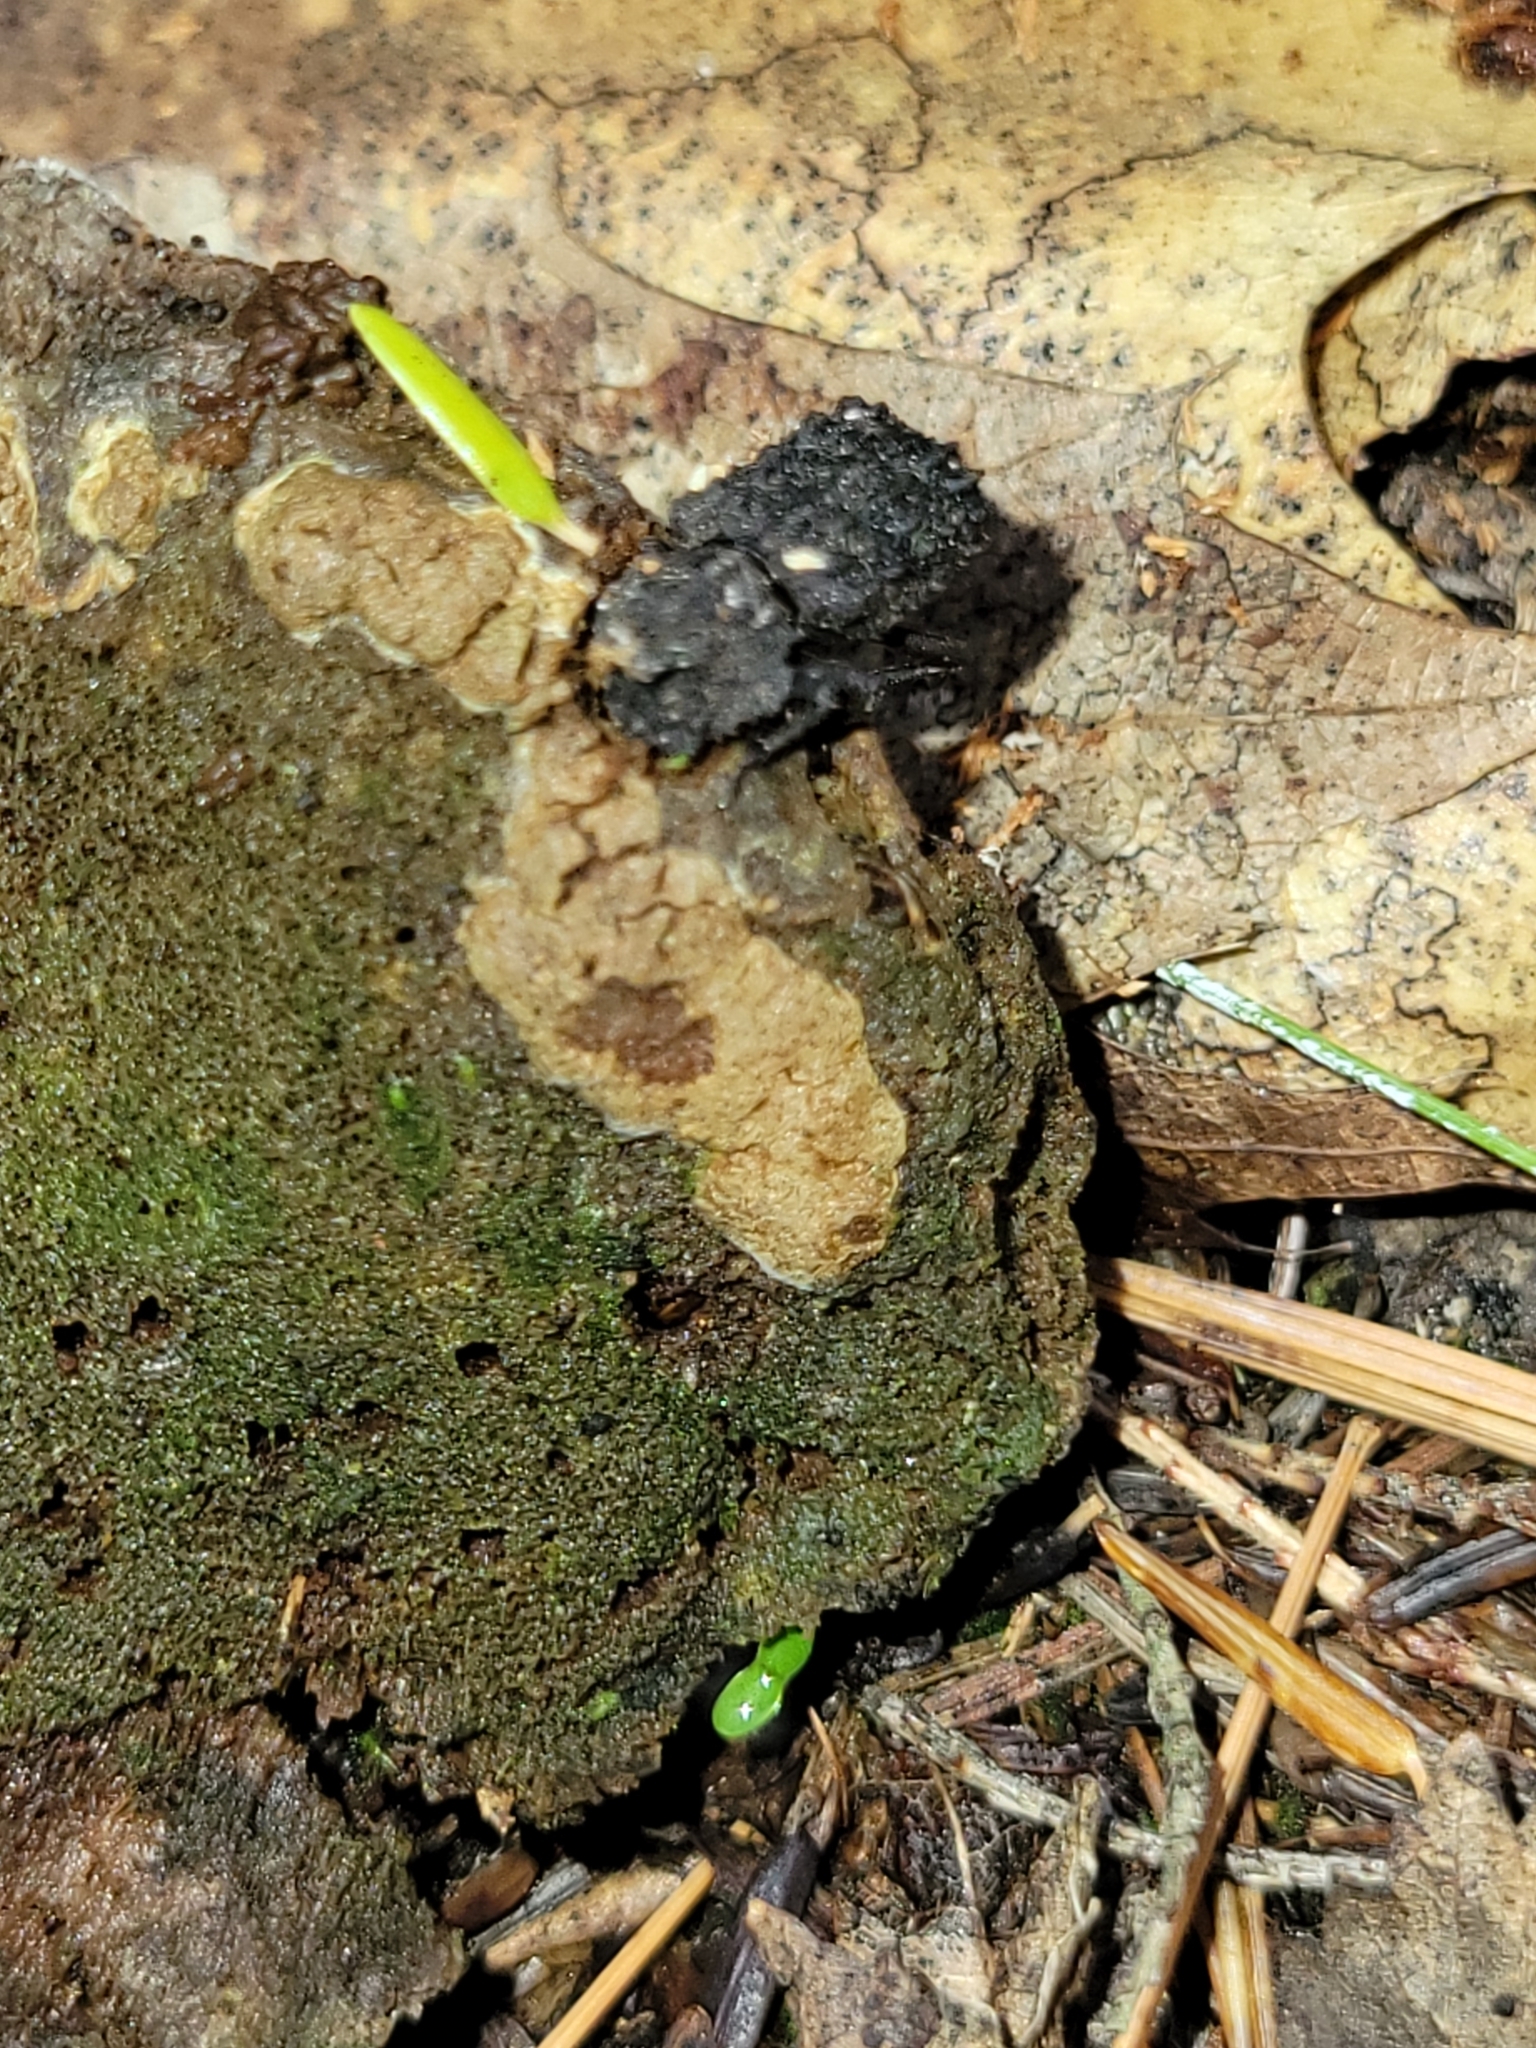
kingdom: Animalia
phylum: Arthropoda
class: Insecta
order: Coleoptera
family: Tenebrionidae
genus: Gnatocerus
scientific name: Gnatocerus cornutus
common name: Broad-horned flour beetle
